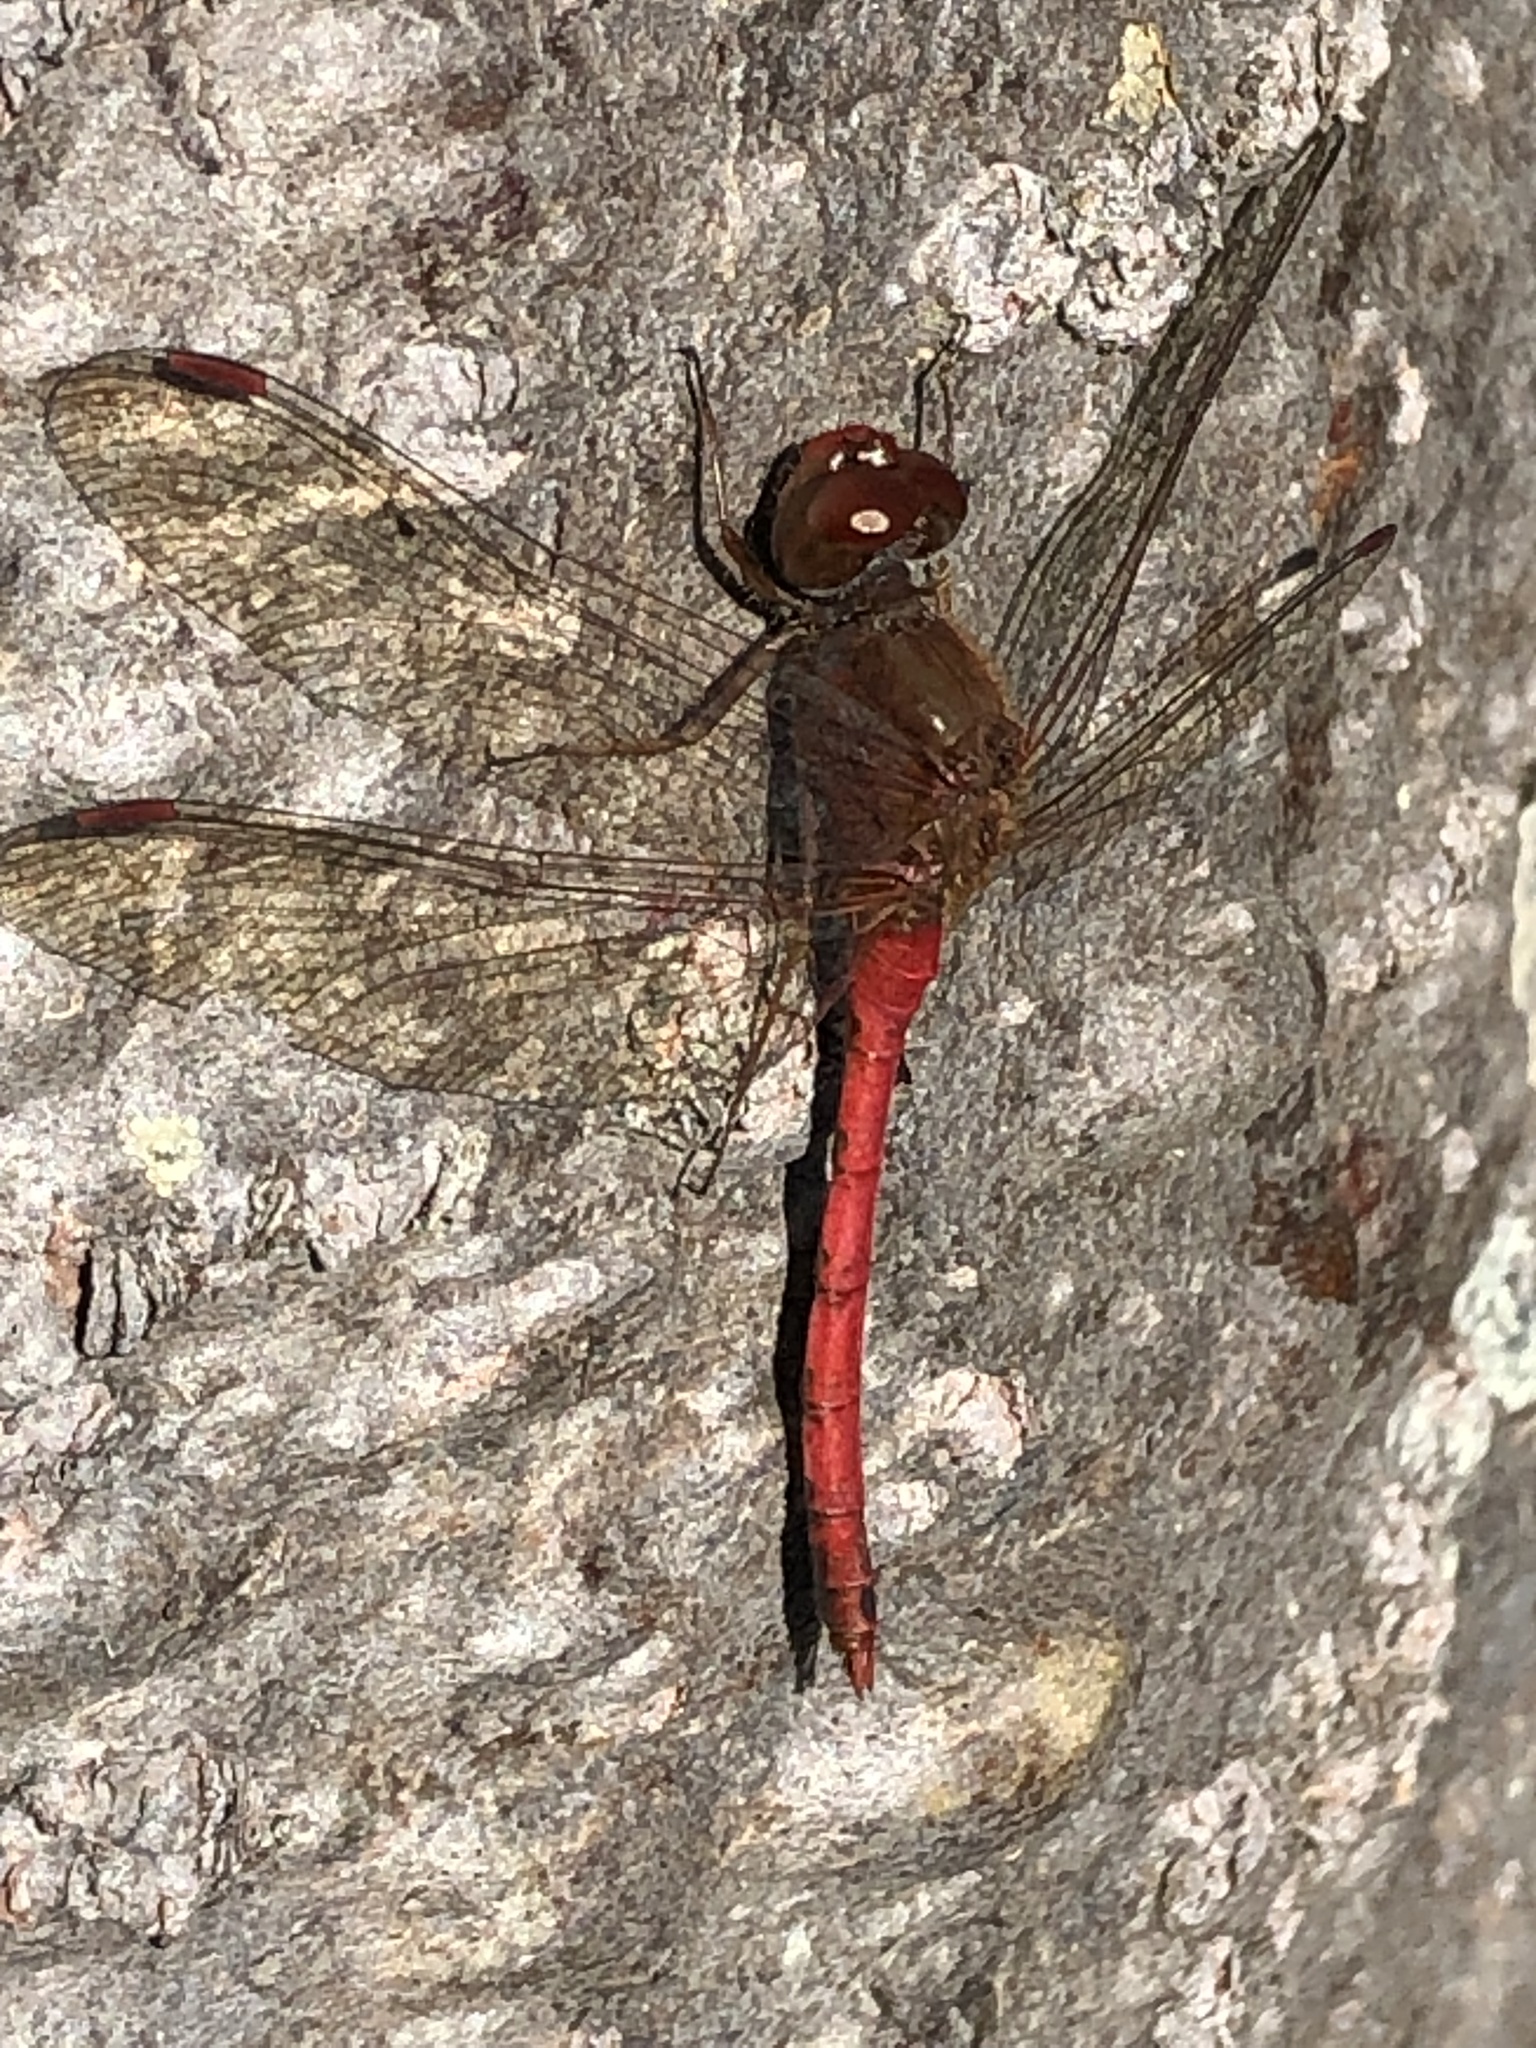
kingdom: Animalia
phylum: Arthropoda
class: Insecta
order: Odonata
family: Libellulidae
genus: Sympetrum
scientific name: Sympetrum vicinum
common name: Autumn meadowhawk
